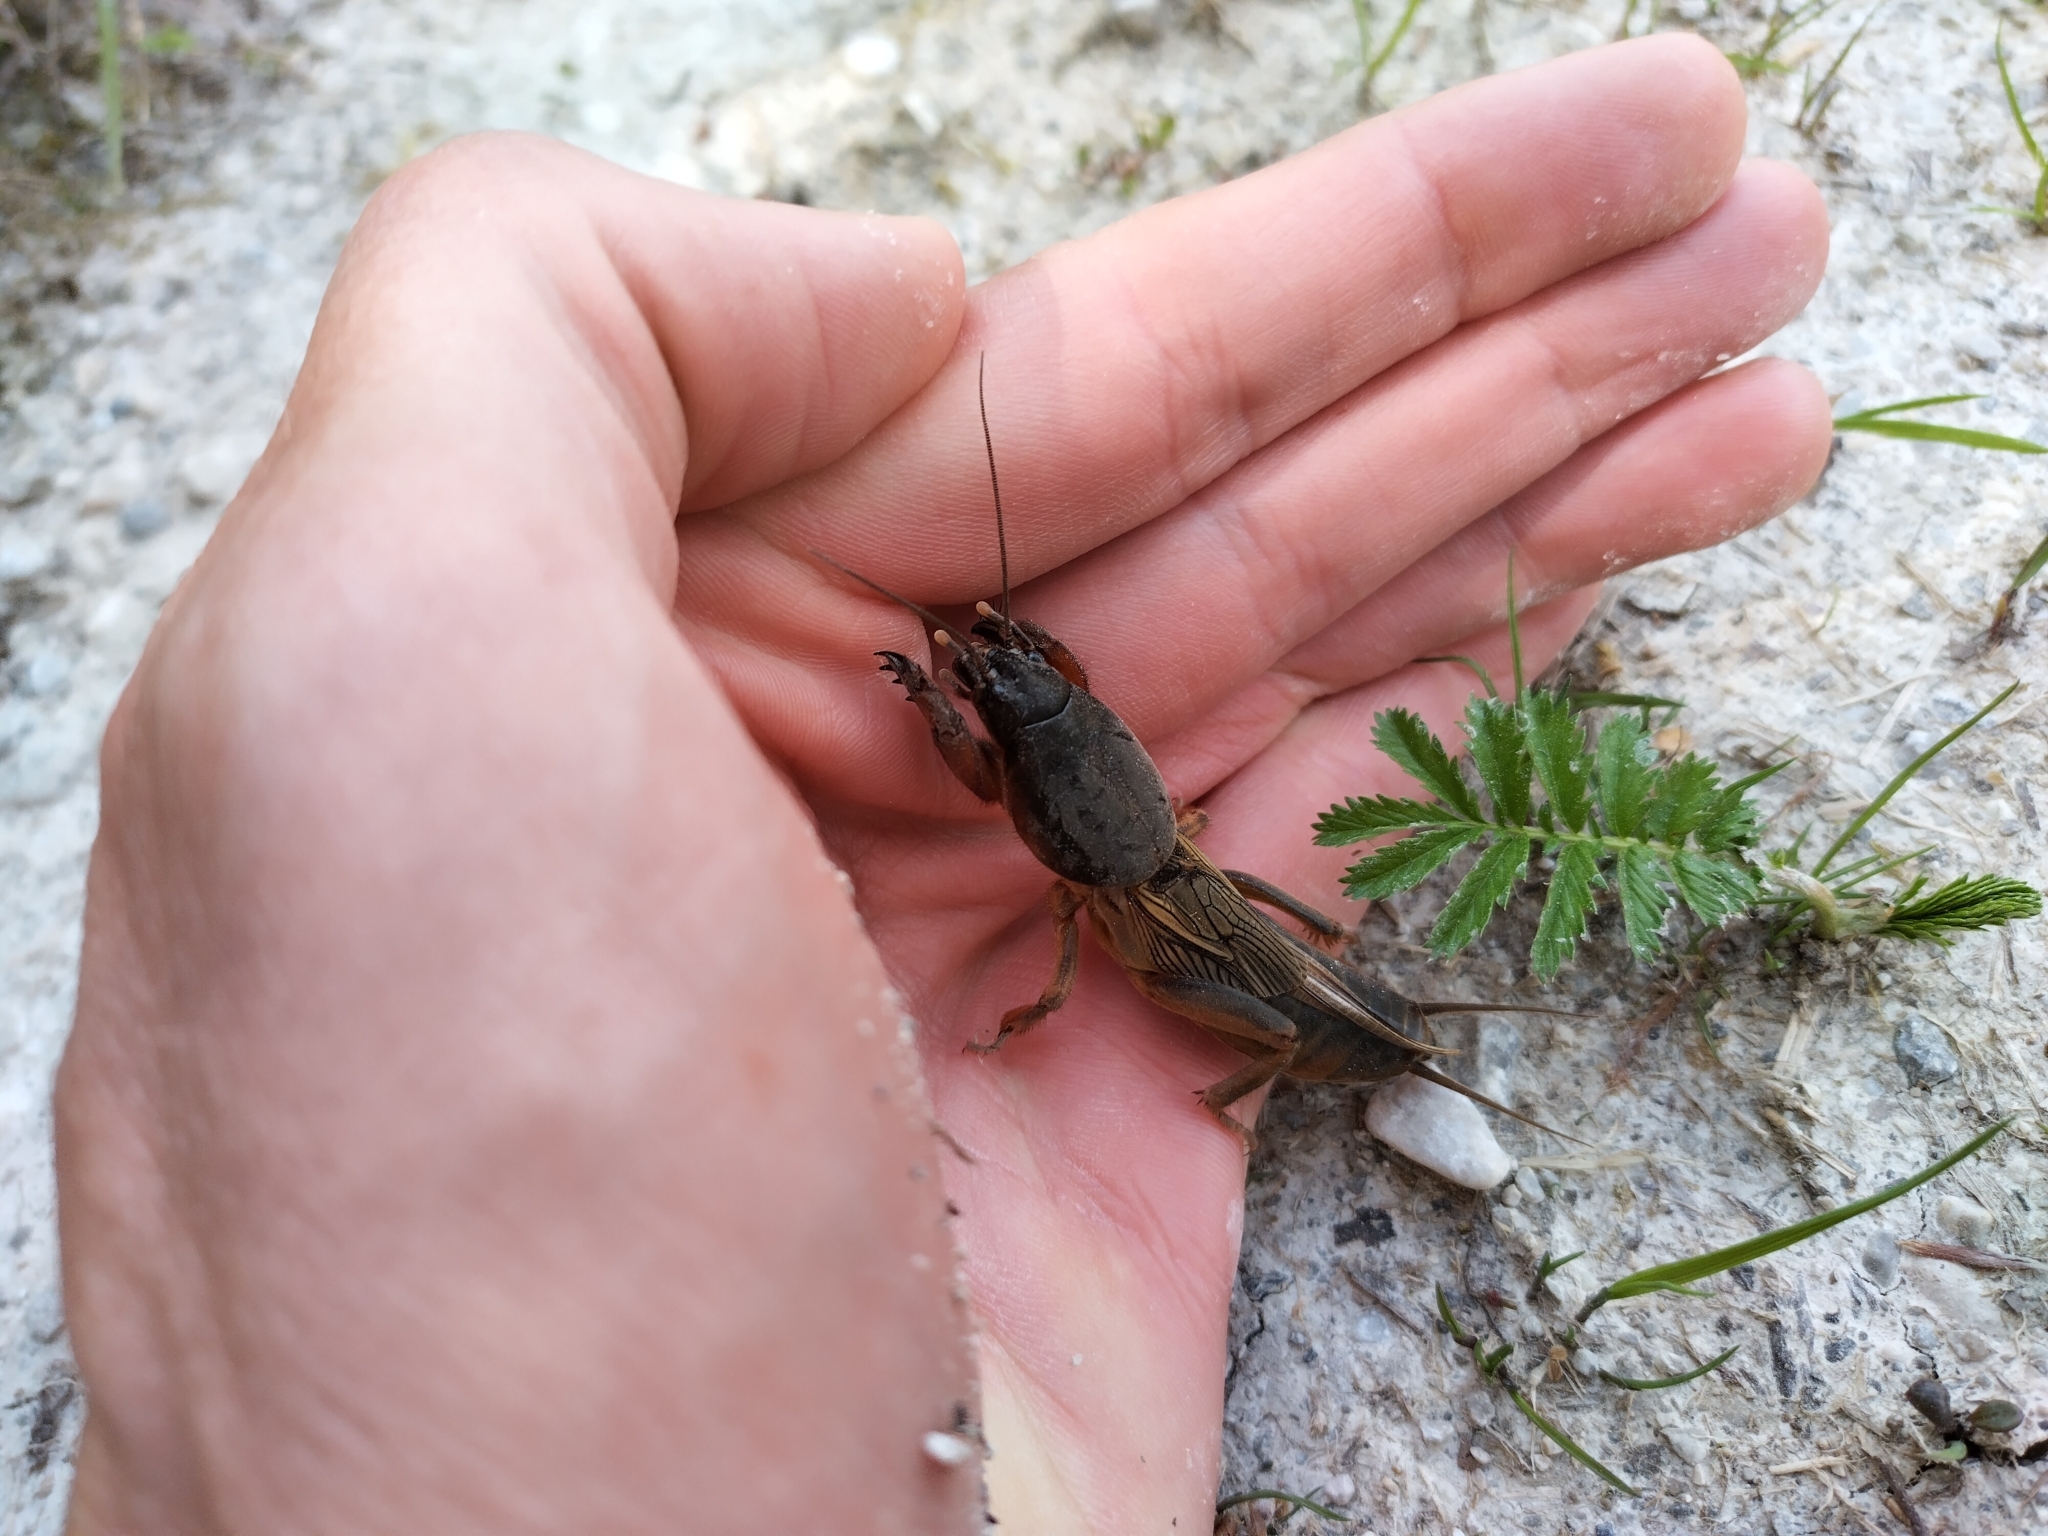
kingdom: Animalia
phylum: Arthropoda
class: Insecta
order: Orthoptera
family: Gryllotalpidae
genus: Gryllotalpa
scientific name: Gryllotalpa gryllotalpa
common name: European mole cricket
